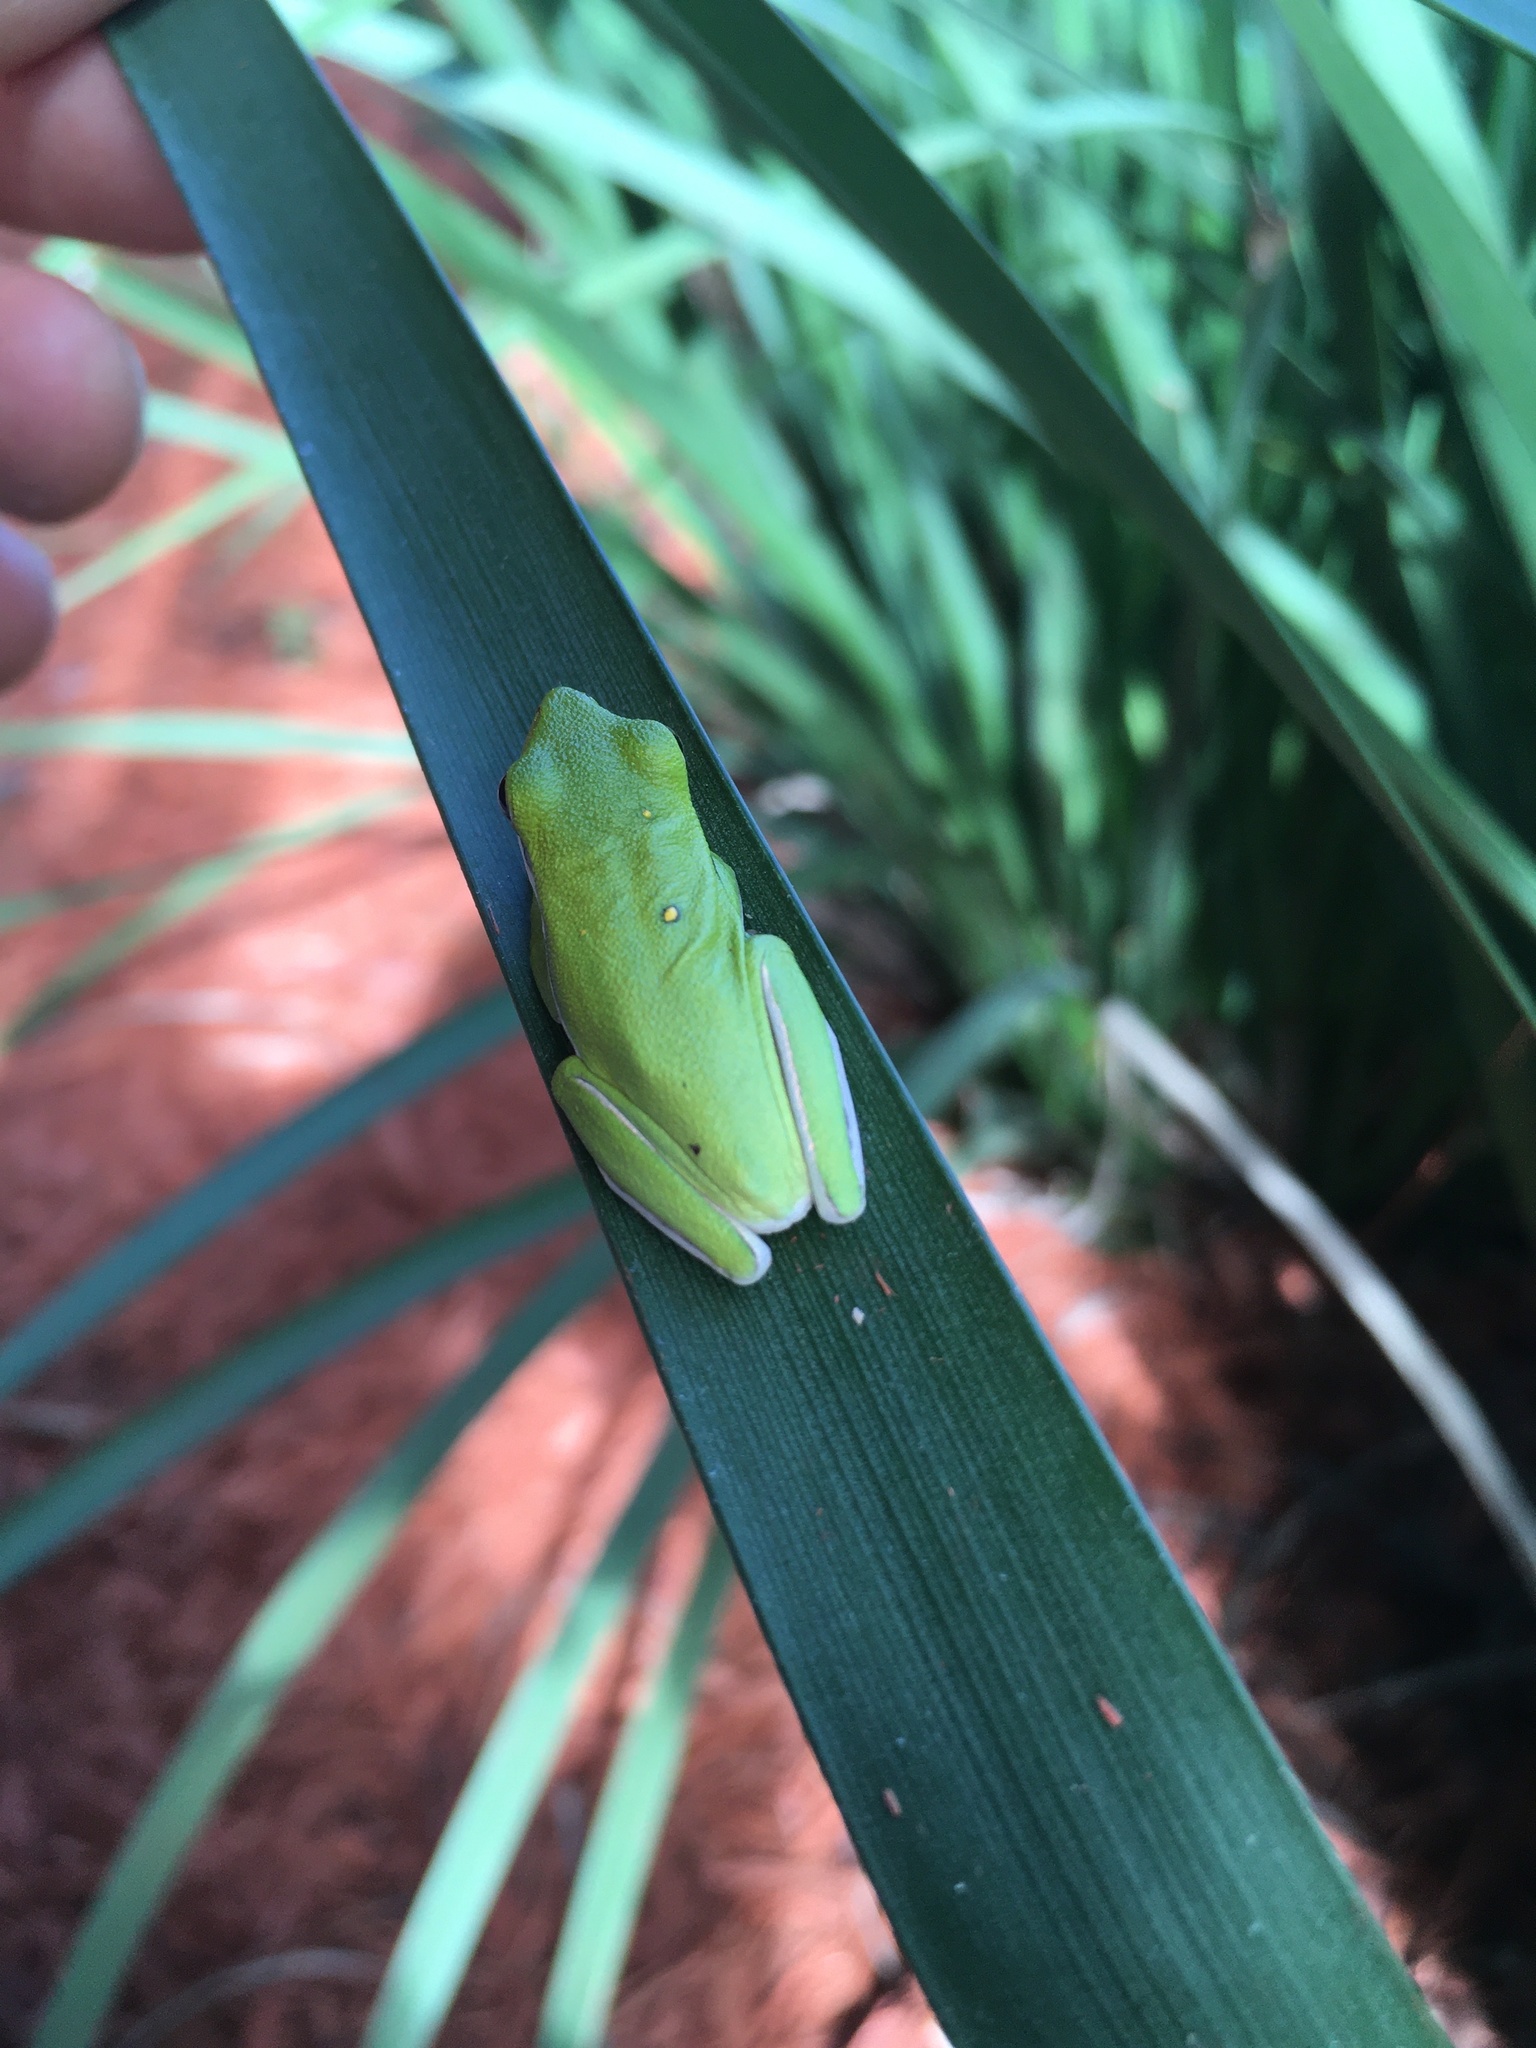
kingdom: Animalia
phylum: Chordata
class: Amphibia
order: Anura
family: Hylidae
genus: Dryophytes
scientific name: Dryophytes cinereus
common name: Green treefrog
